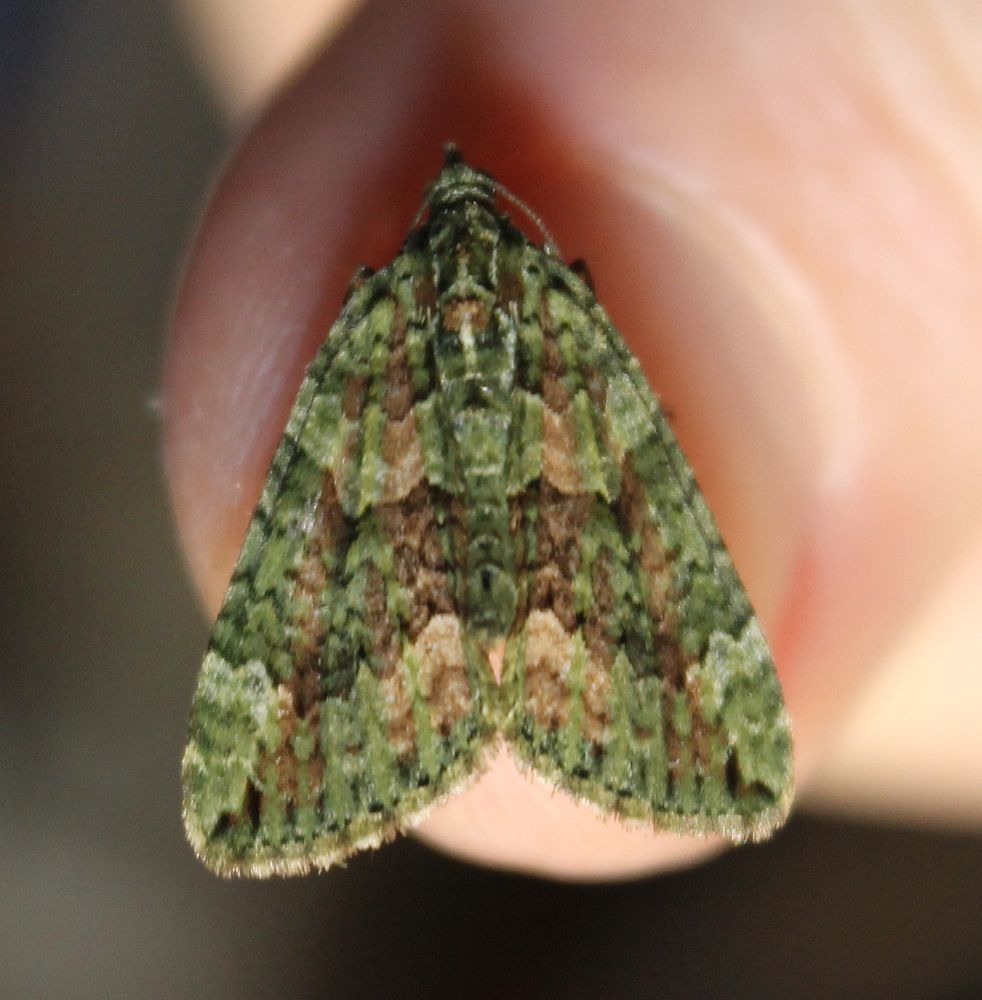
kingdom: Animalia
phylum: Arthropoda
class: Insecta
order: Lepidoptera
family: Geometridae
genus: Chloroclysta
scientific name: Chloroclysta siterata
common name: Red-green carpet
